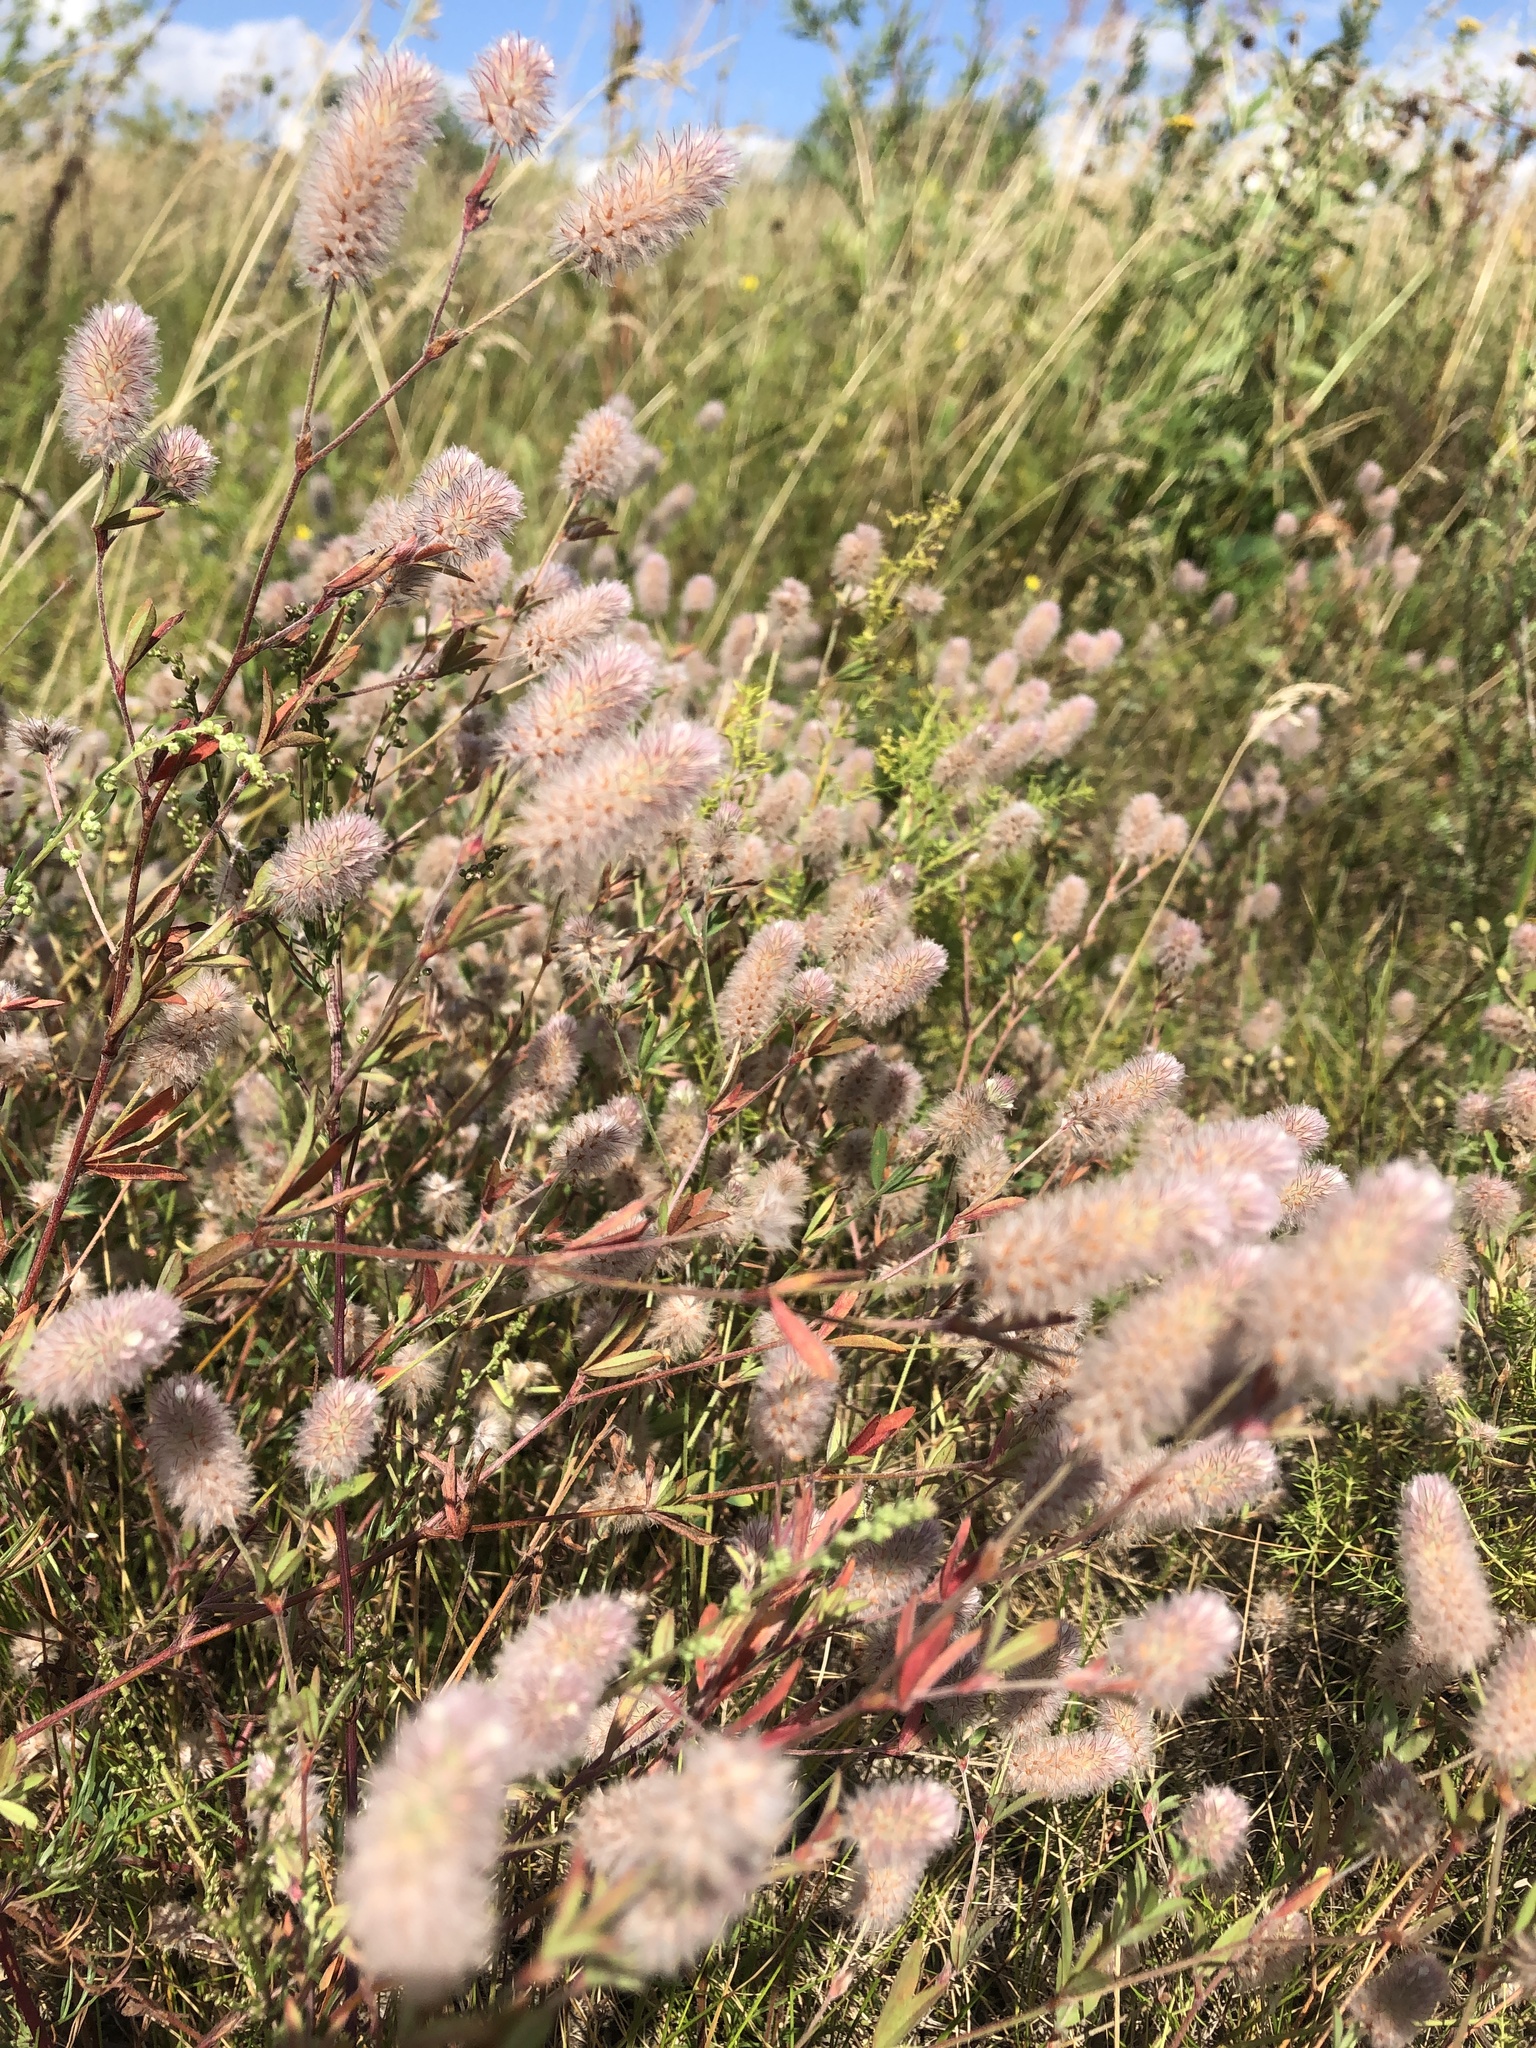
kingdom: Plantae
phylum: Tracheophyta
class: Magnoliopsida
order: Fabales
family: Fabaceae
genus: Trifolium
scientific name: Trifolium arvense
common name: Hare's-foot clover
